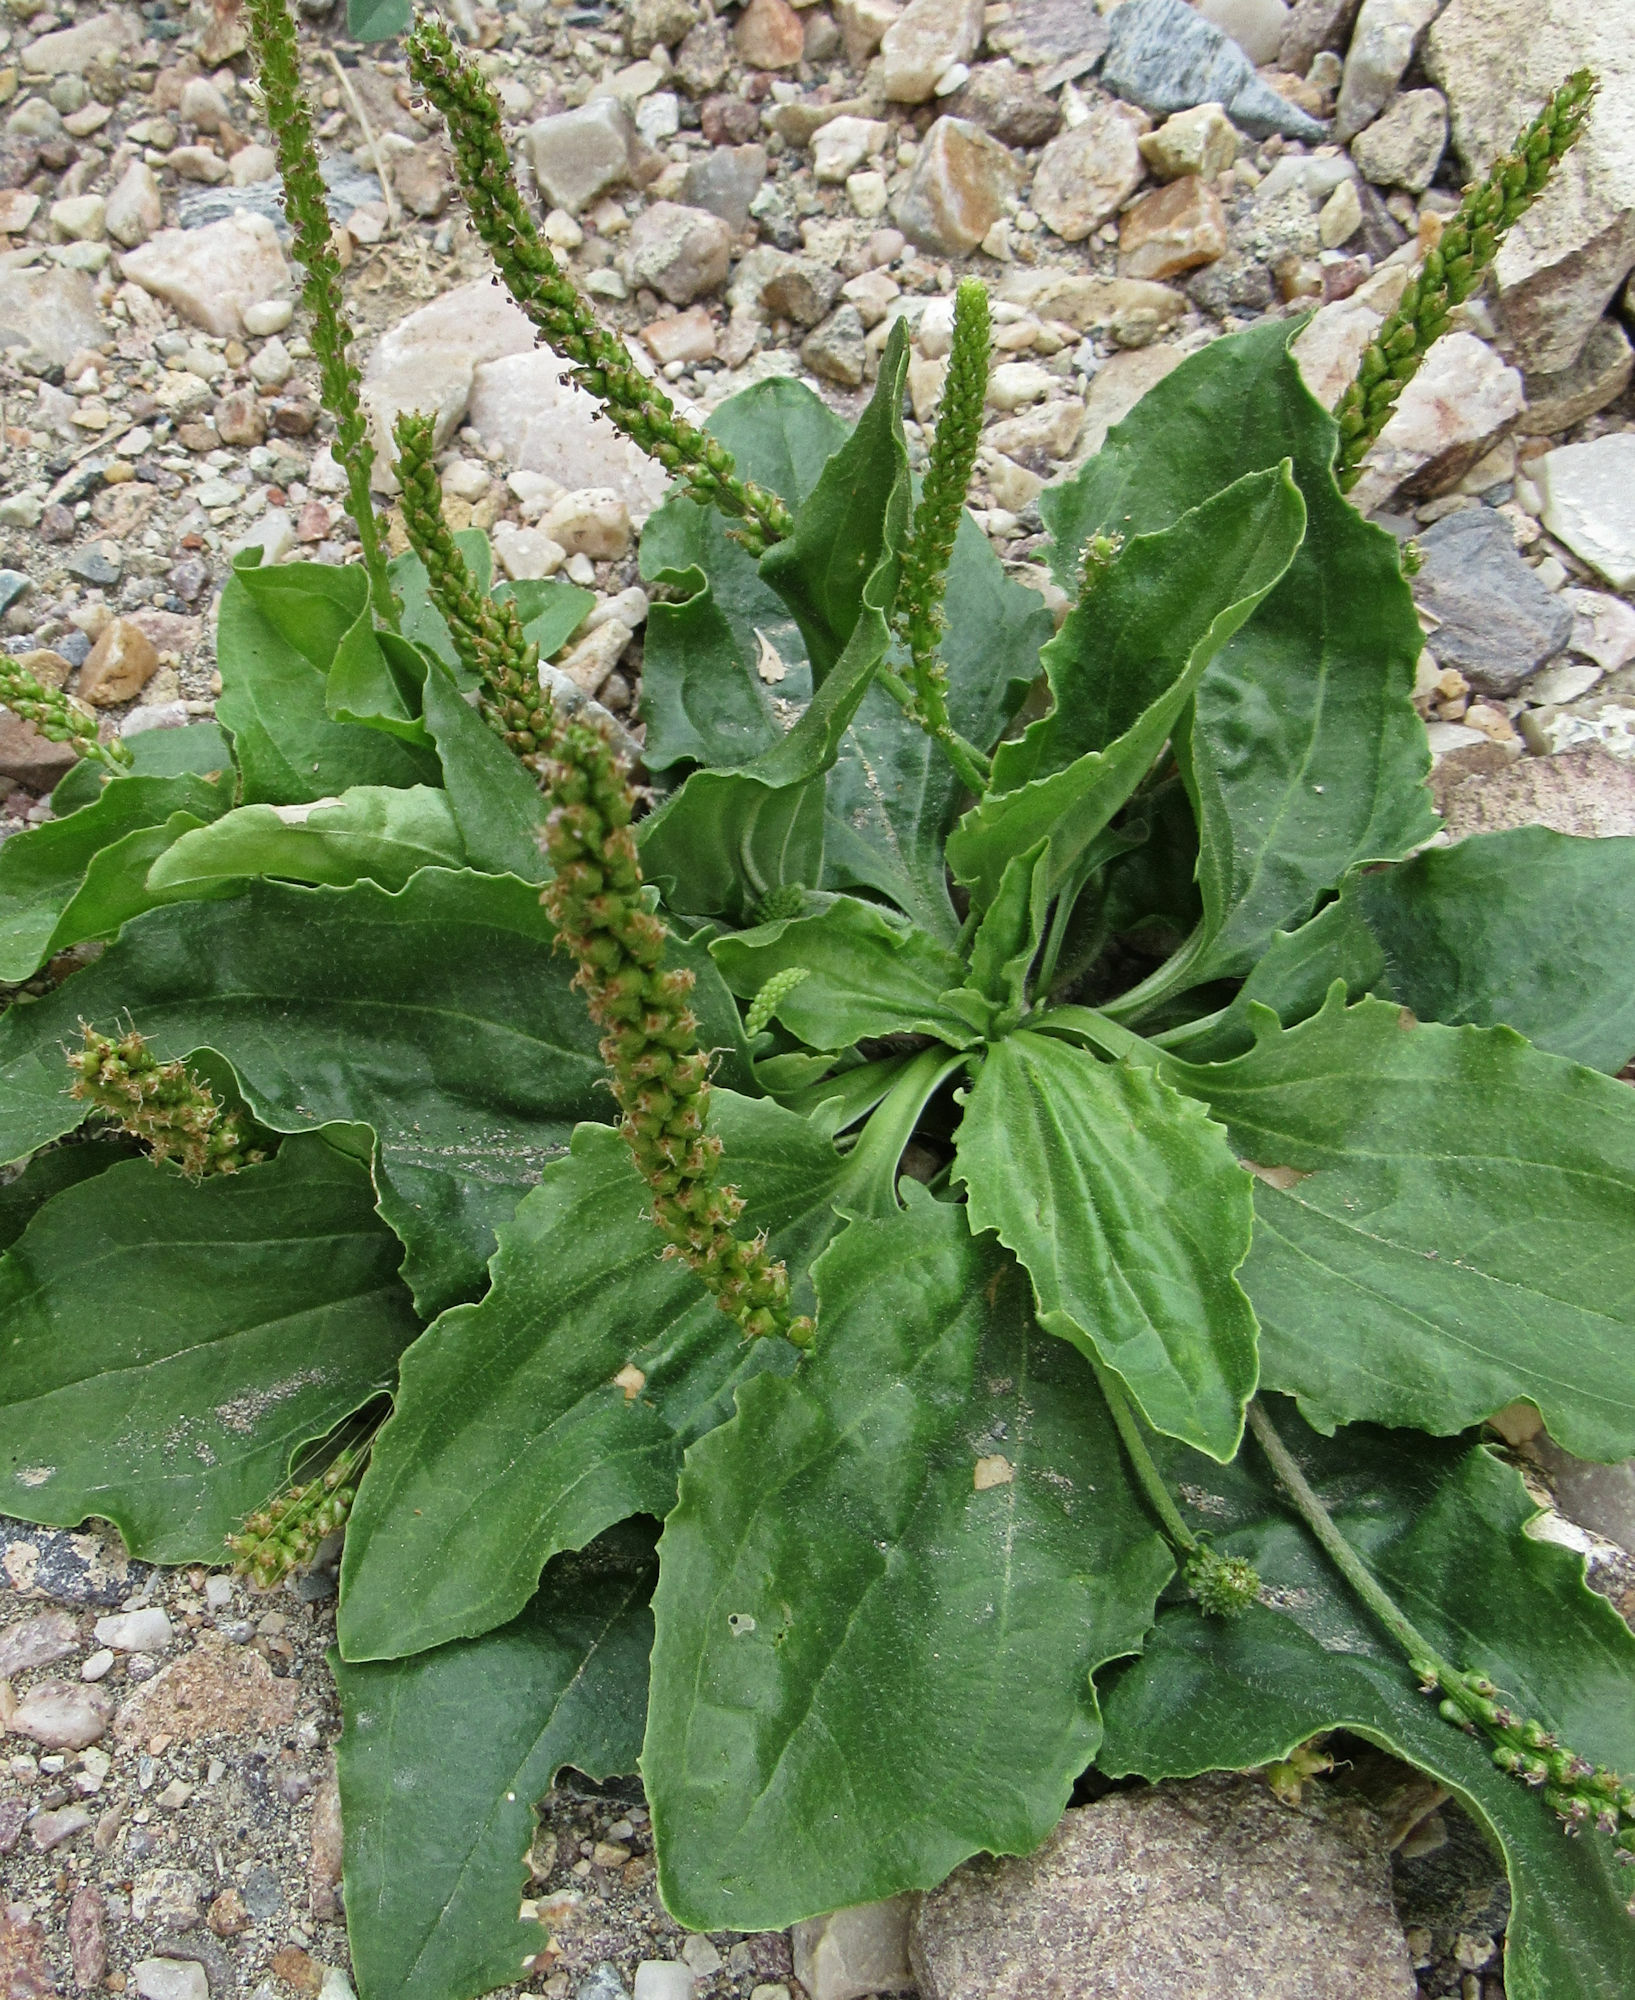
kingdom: Plantae
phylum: Tracheophyta
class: Magnoliopsida
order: Lamiales
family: Plantaginaceae
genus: Plantago
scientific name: Plantago major
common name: Common plantain
